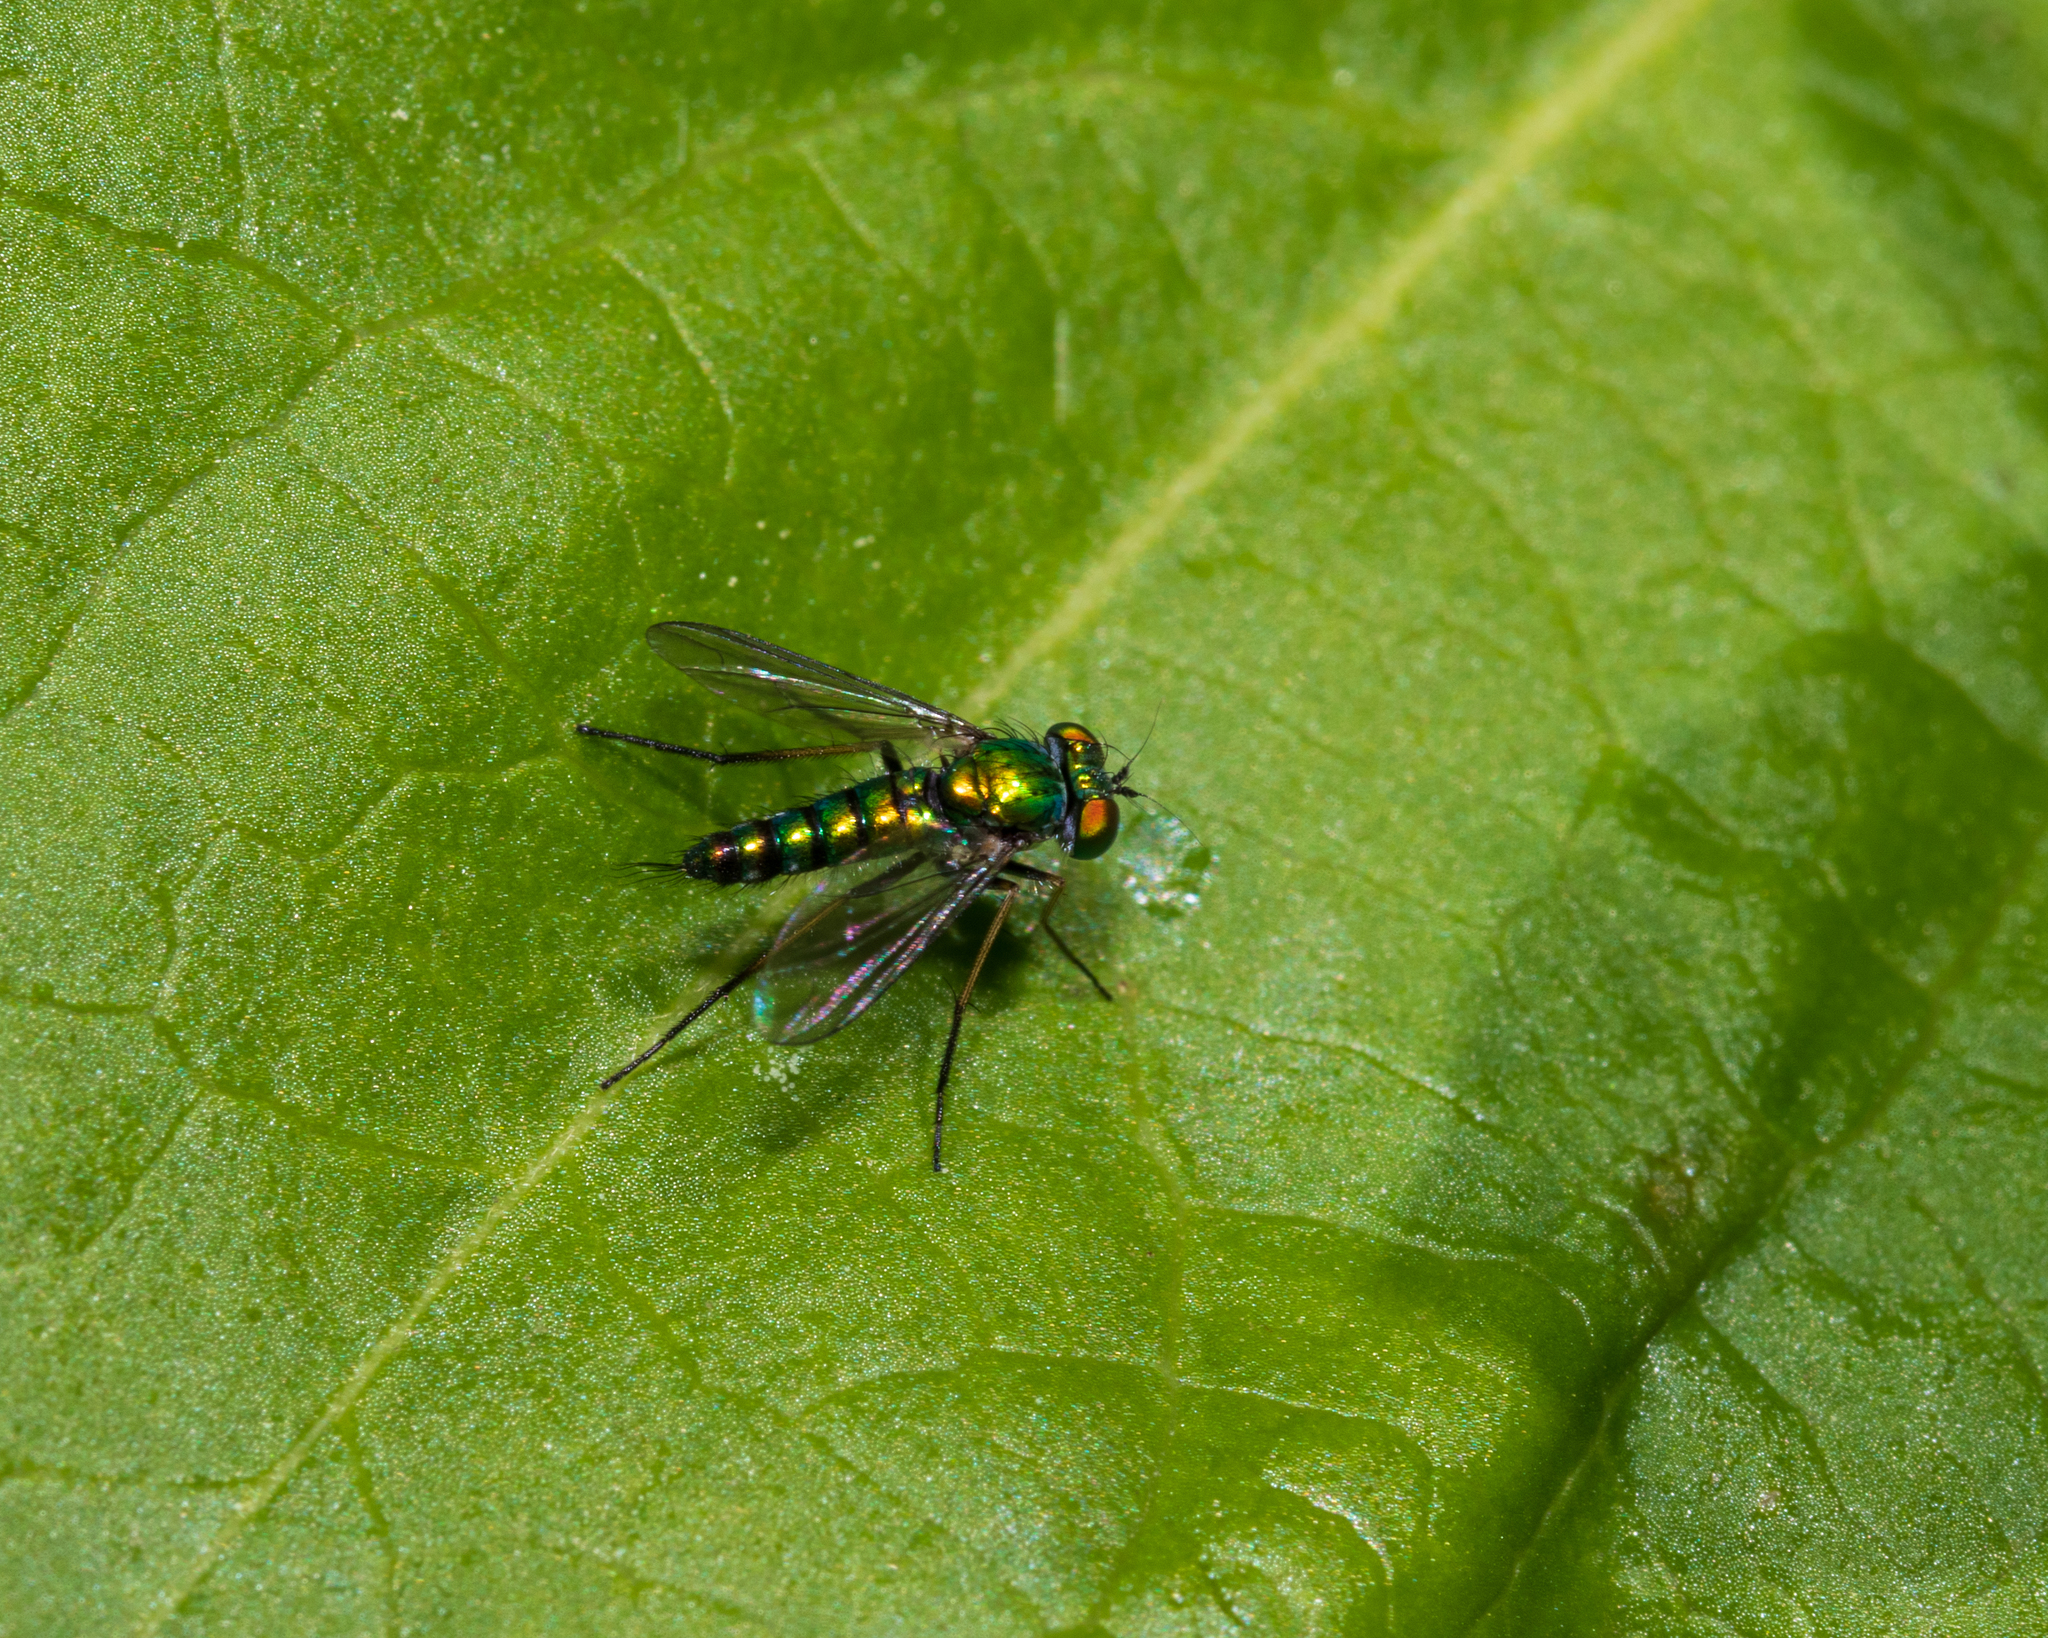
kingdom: Animalia
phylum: Arthropoda
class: Insecta
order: Diptera
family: Dolichopodidae
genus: Condylostylus
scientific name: Condylostylus caudatus
